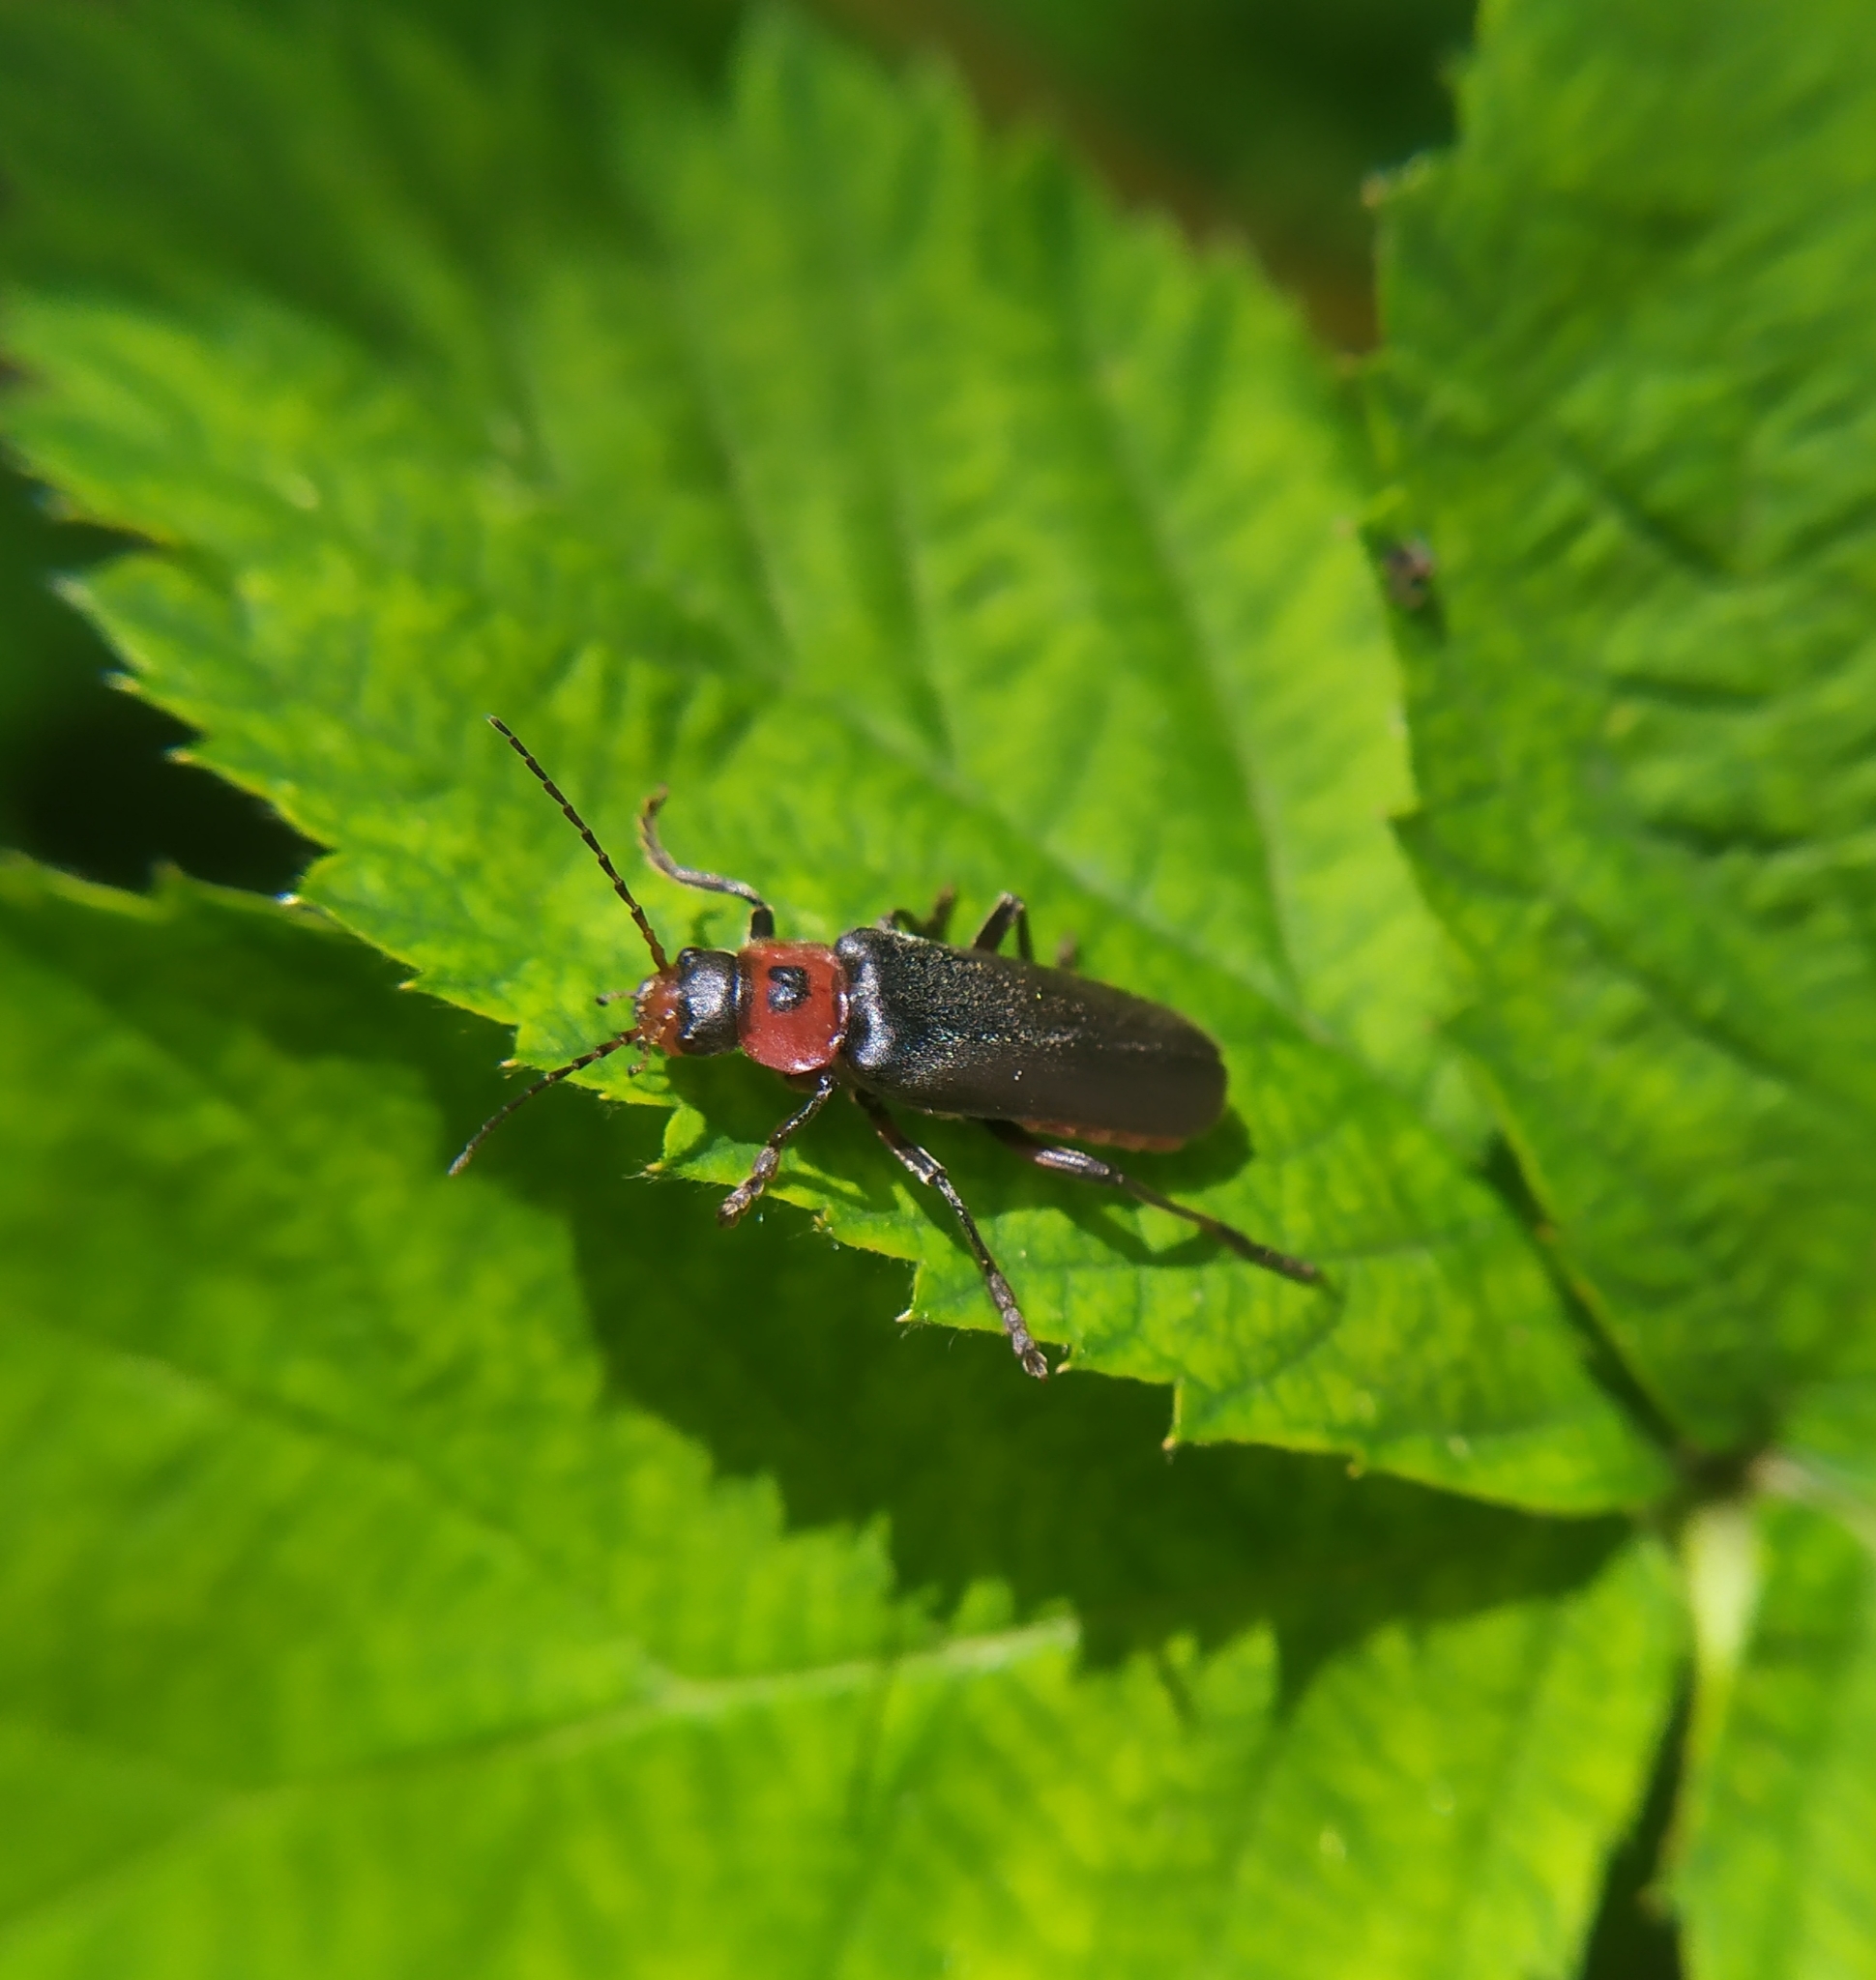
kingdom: Animalia
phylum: Arthropoda
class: Insecta
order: Coleoptera
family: Cantharidae
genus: Cantharis
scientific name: Cantharis rustica
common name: Soldier beetle
